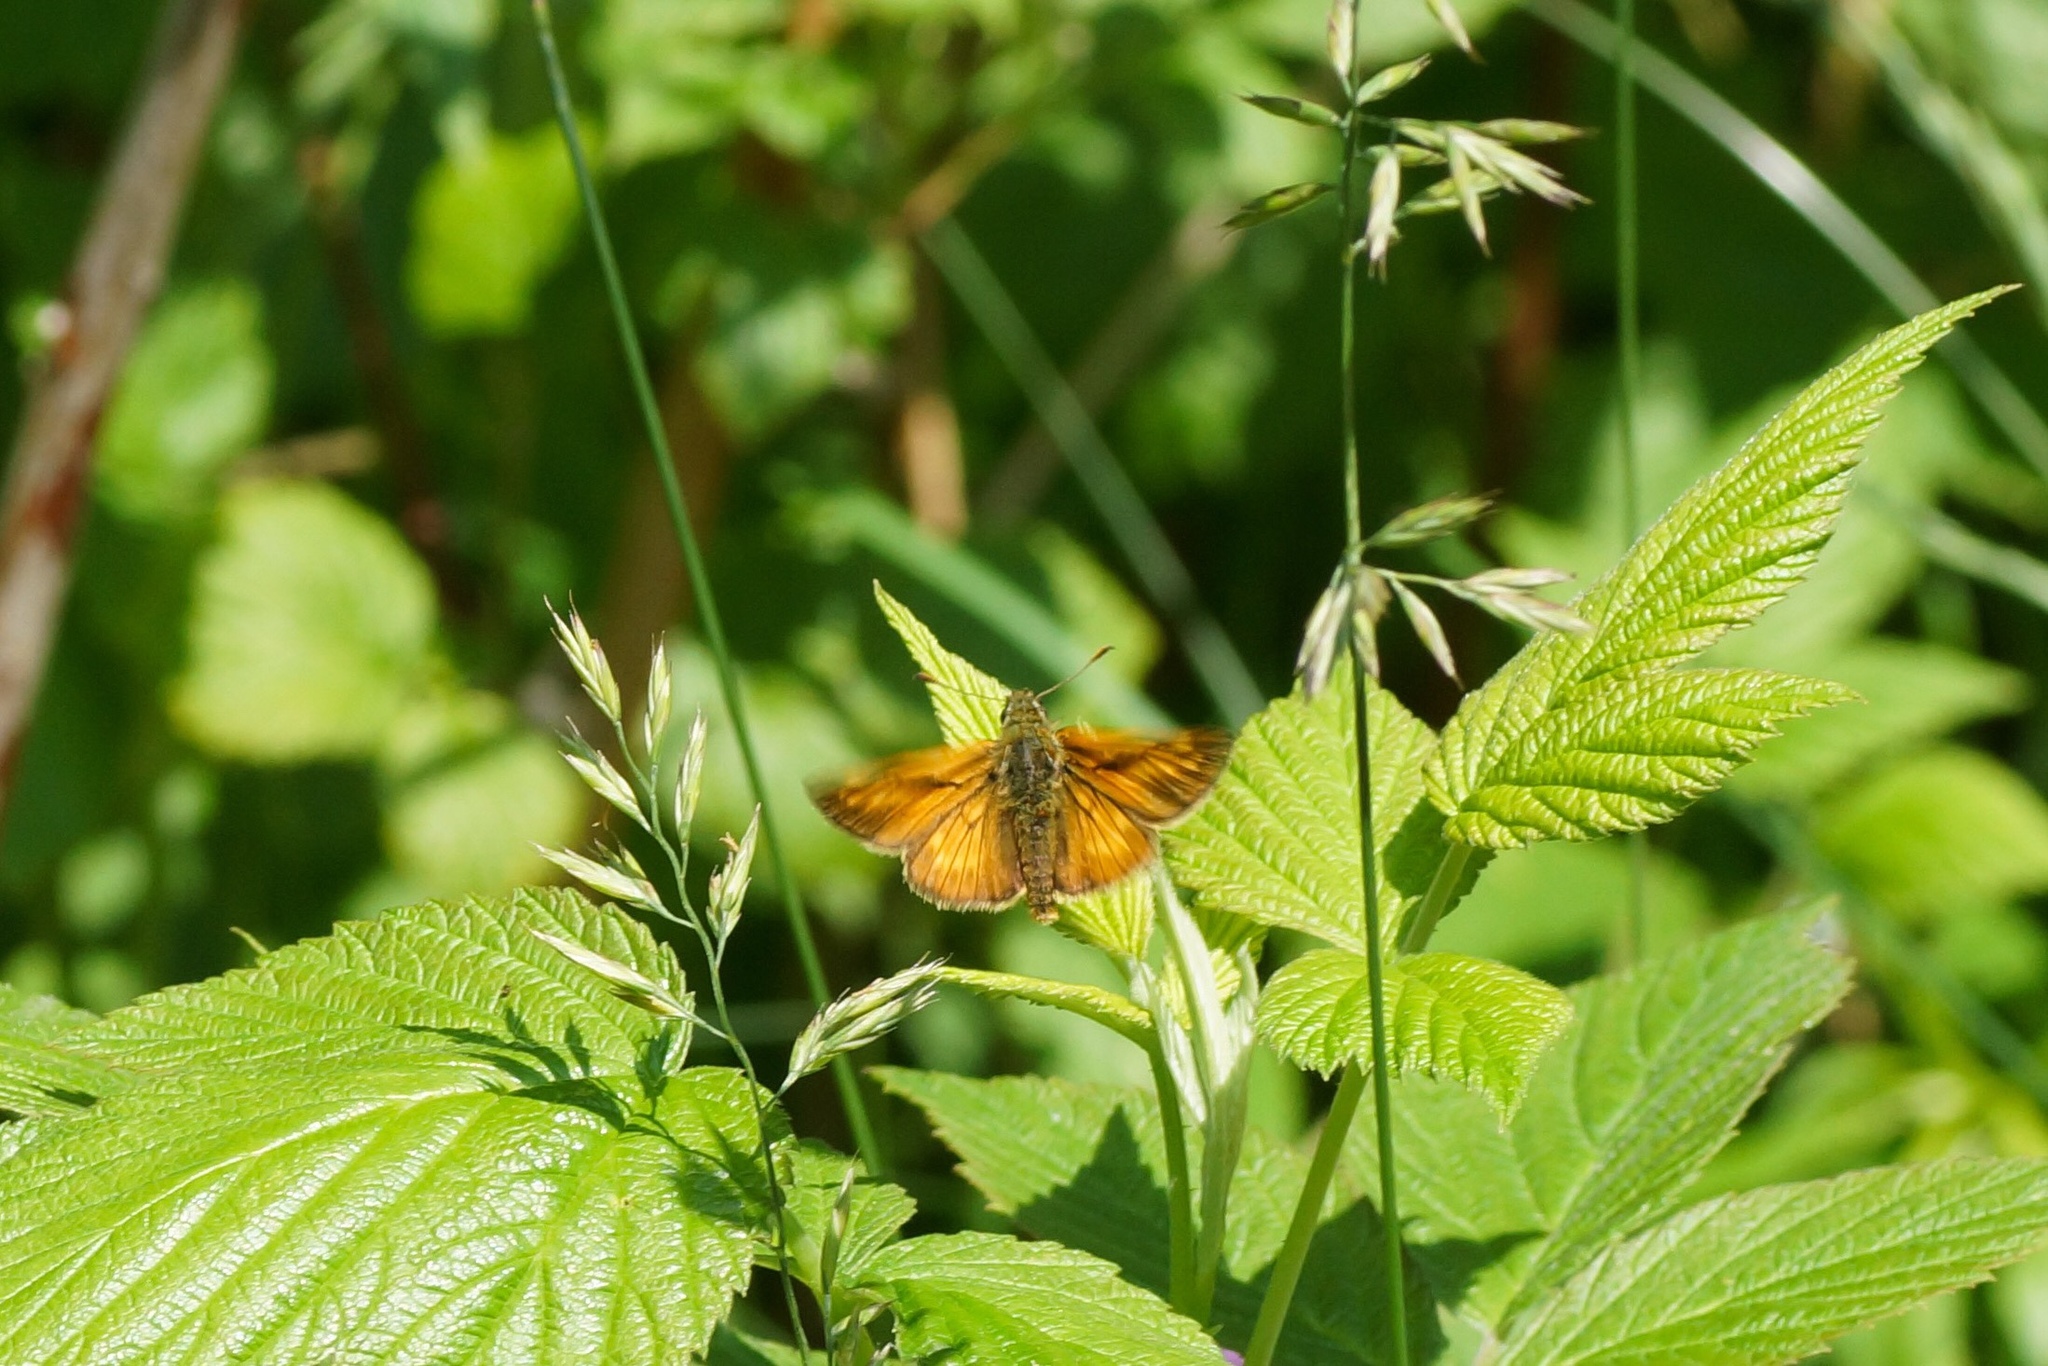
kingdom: Animalia
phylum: Arthropoda
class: Insecta
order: Lepidoptera
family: Hesperiidae
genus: Ochlodes
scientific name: Ochlodes venata
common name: Large skipper
